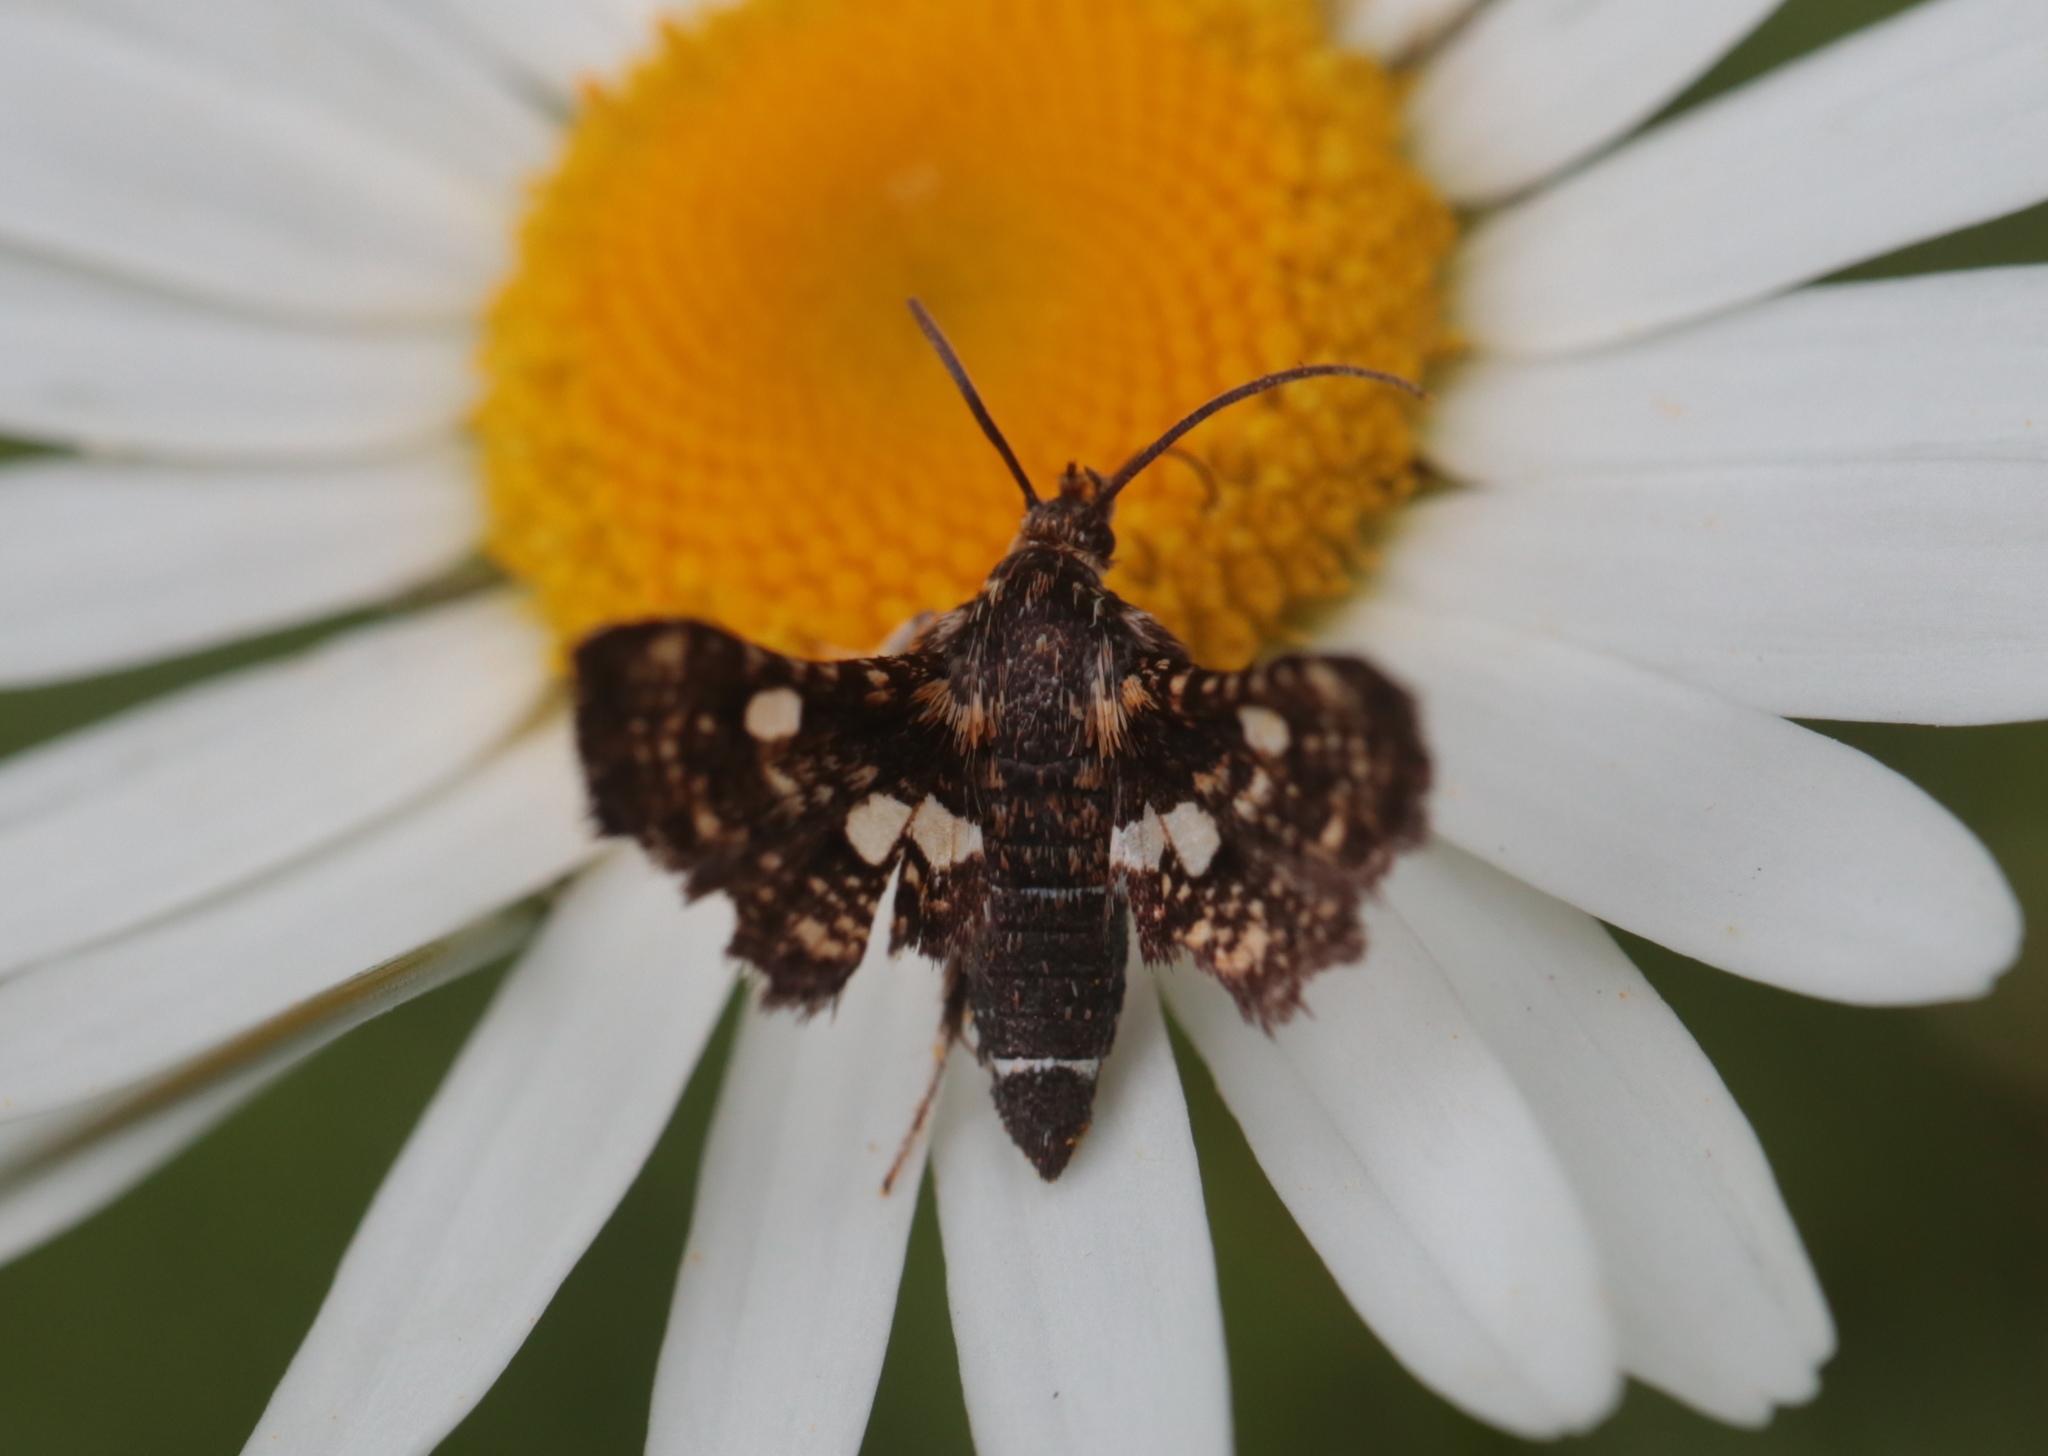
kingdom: Animalia
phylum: Arthropoda
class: Insecta
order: Lepidoptera
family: Thyrididae
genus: Thyris
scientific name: Thyris maculata
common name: Spotted thyris moth
